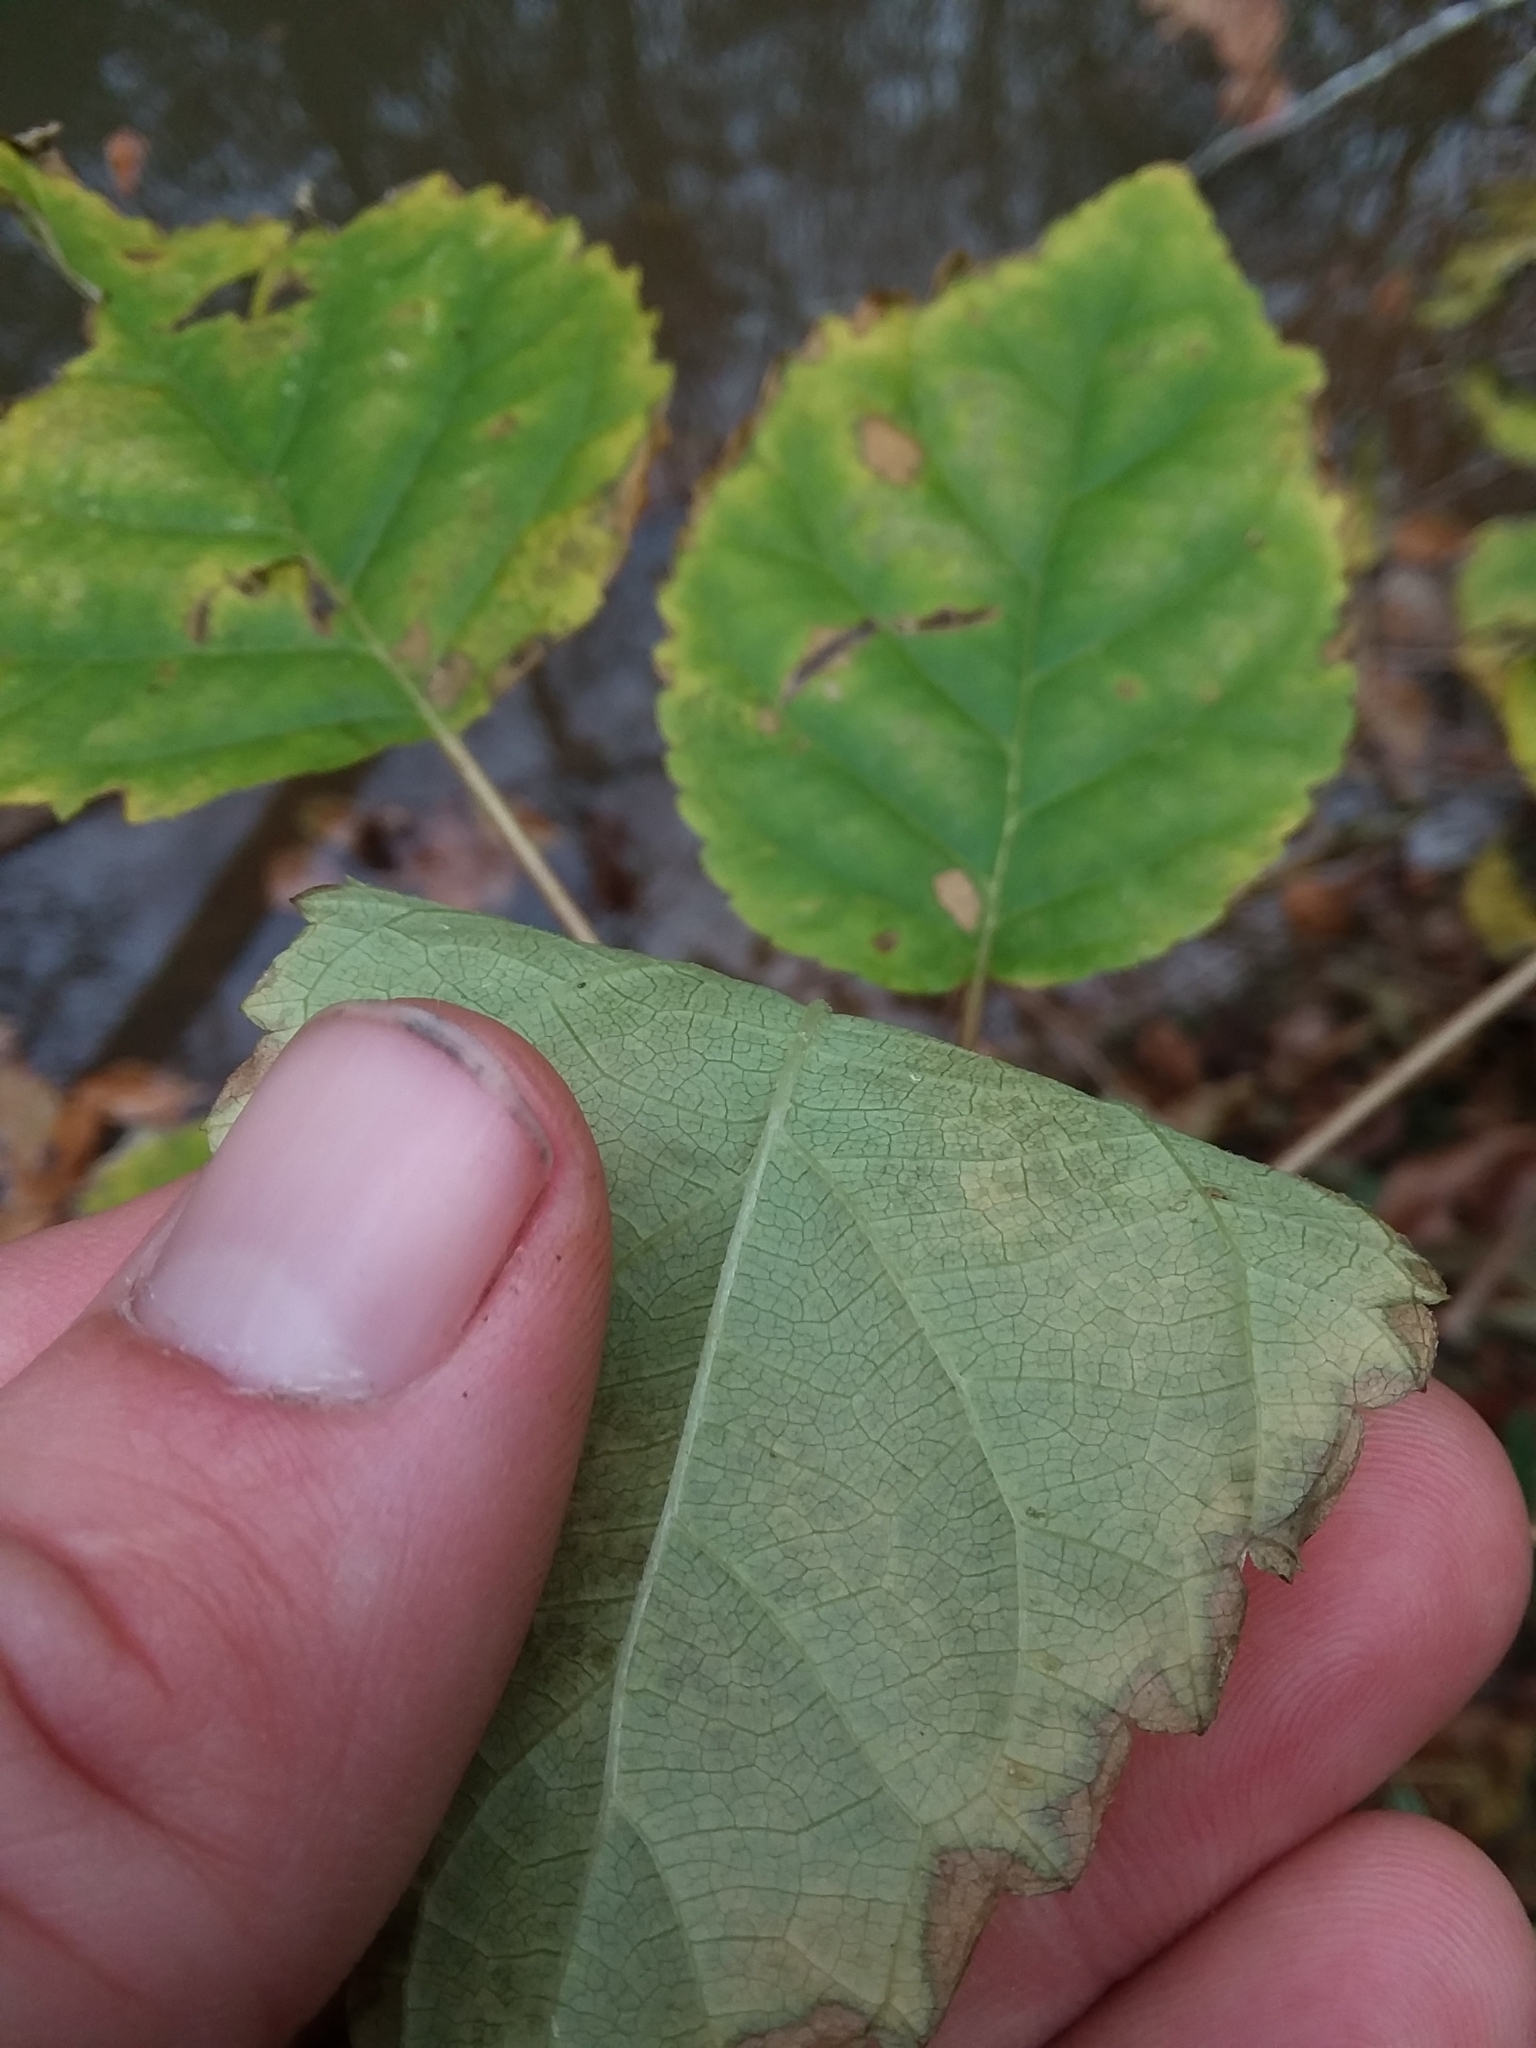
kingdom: Plantae
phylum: Tracheophyta
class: Magnoliopsida
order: Cornales
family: Hydrangeaceae
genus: Hydrangea
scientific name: Hydrangea arborescens
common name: Sevenbark
